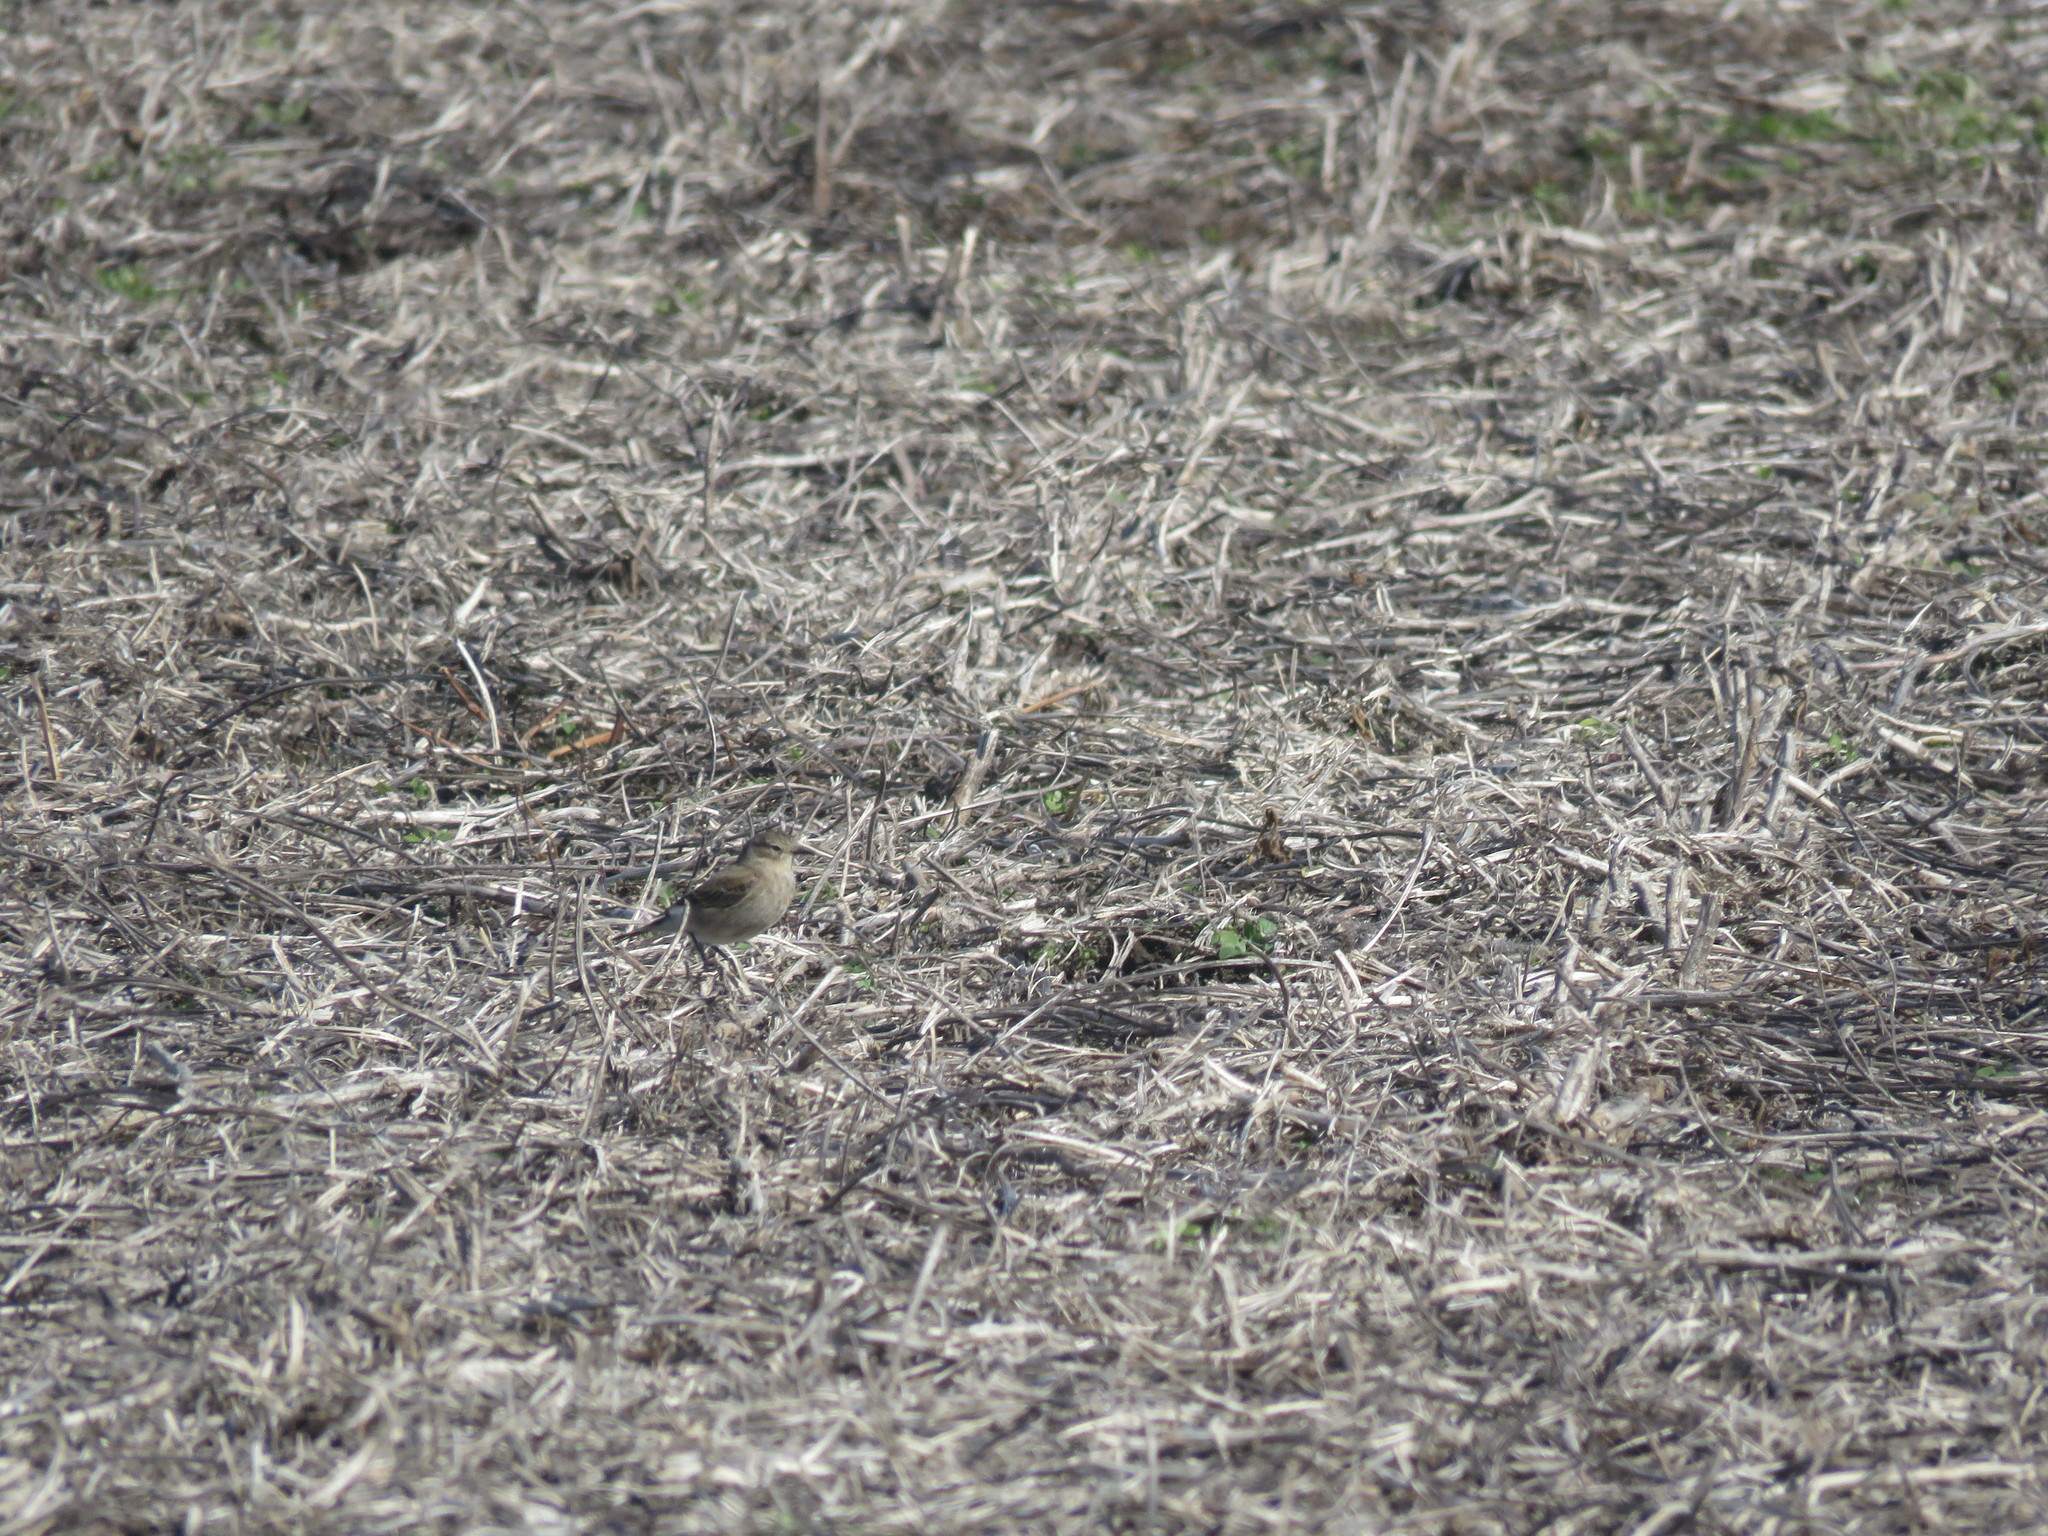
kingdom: Animalia
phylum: Chordata
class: Aves
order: Passeriformes
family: Tyrannidae
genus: Lessonia
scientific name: Lessonia rufa
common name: Austral negrito
